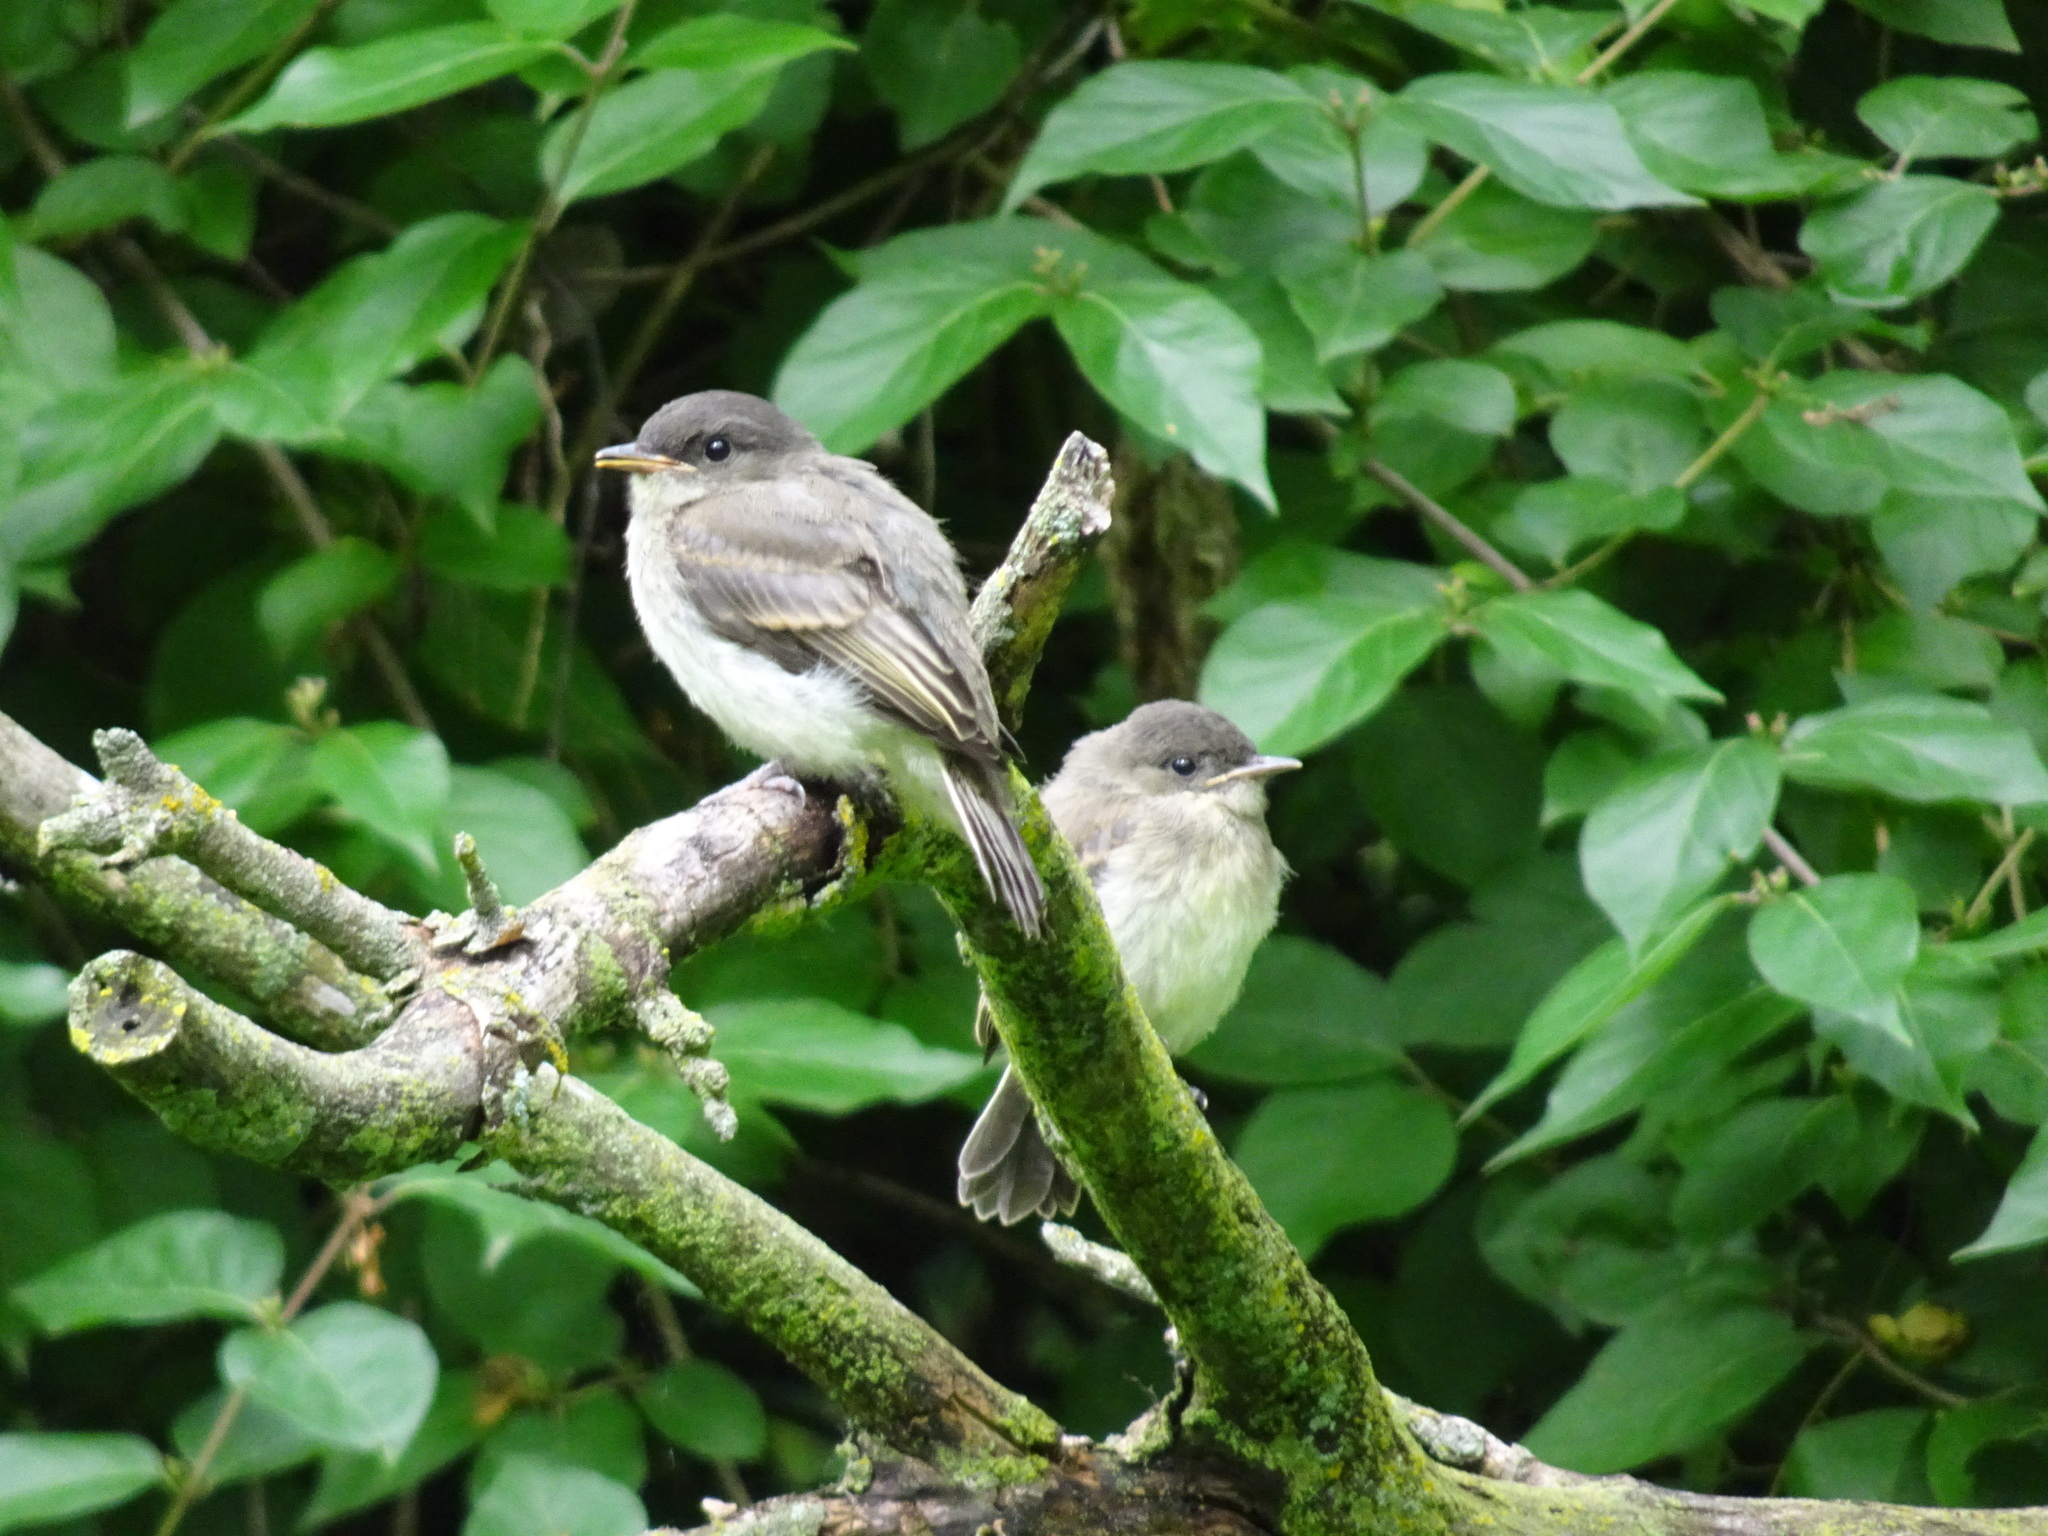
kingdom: Animalia
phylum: Chordata
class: Aves
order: Passeriformes
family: Tyrannidae
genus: Sayornis
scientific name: Sayornis phoebe
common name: Eastern phoebe
